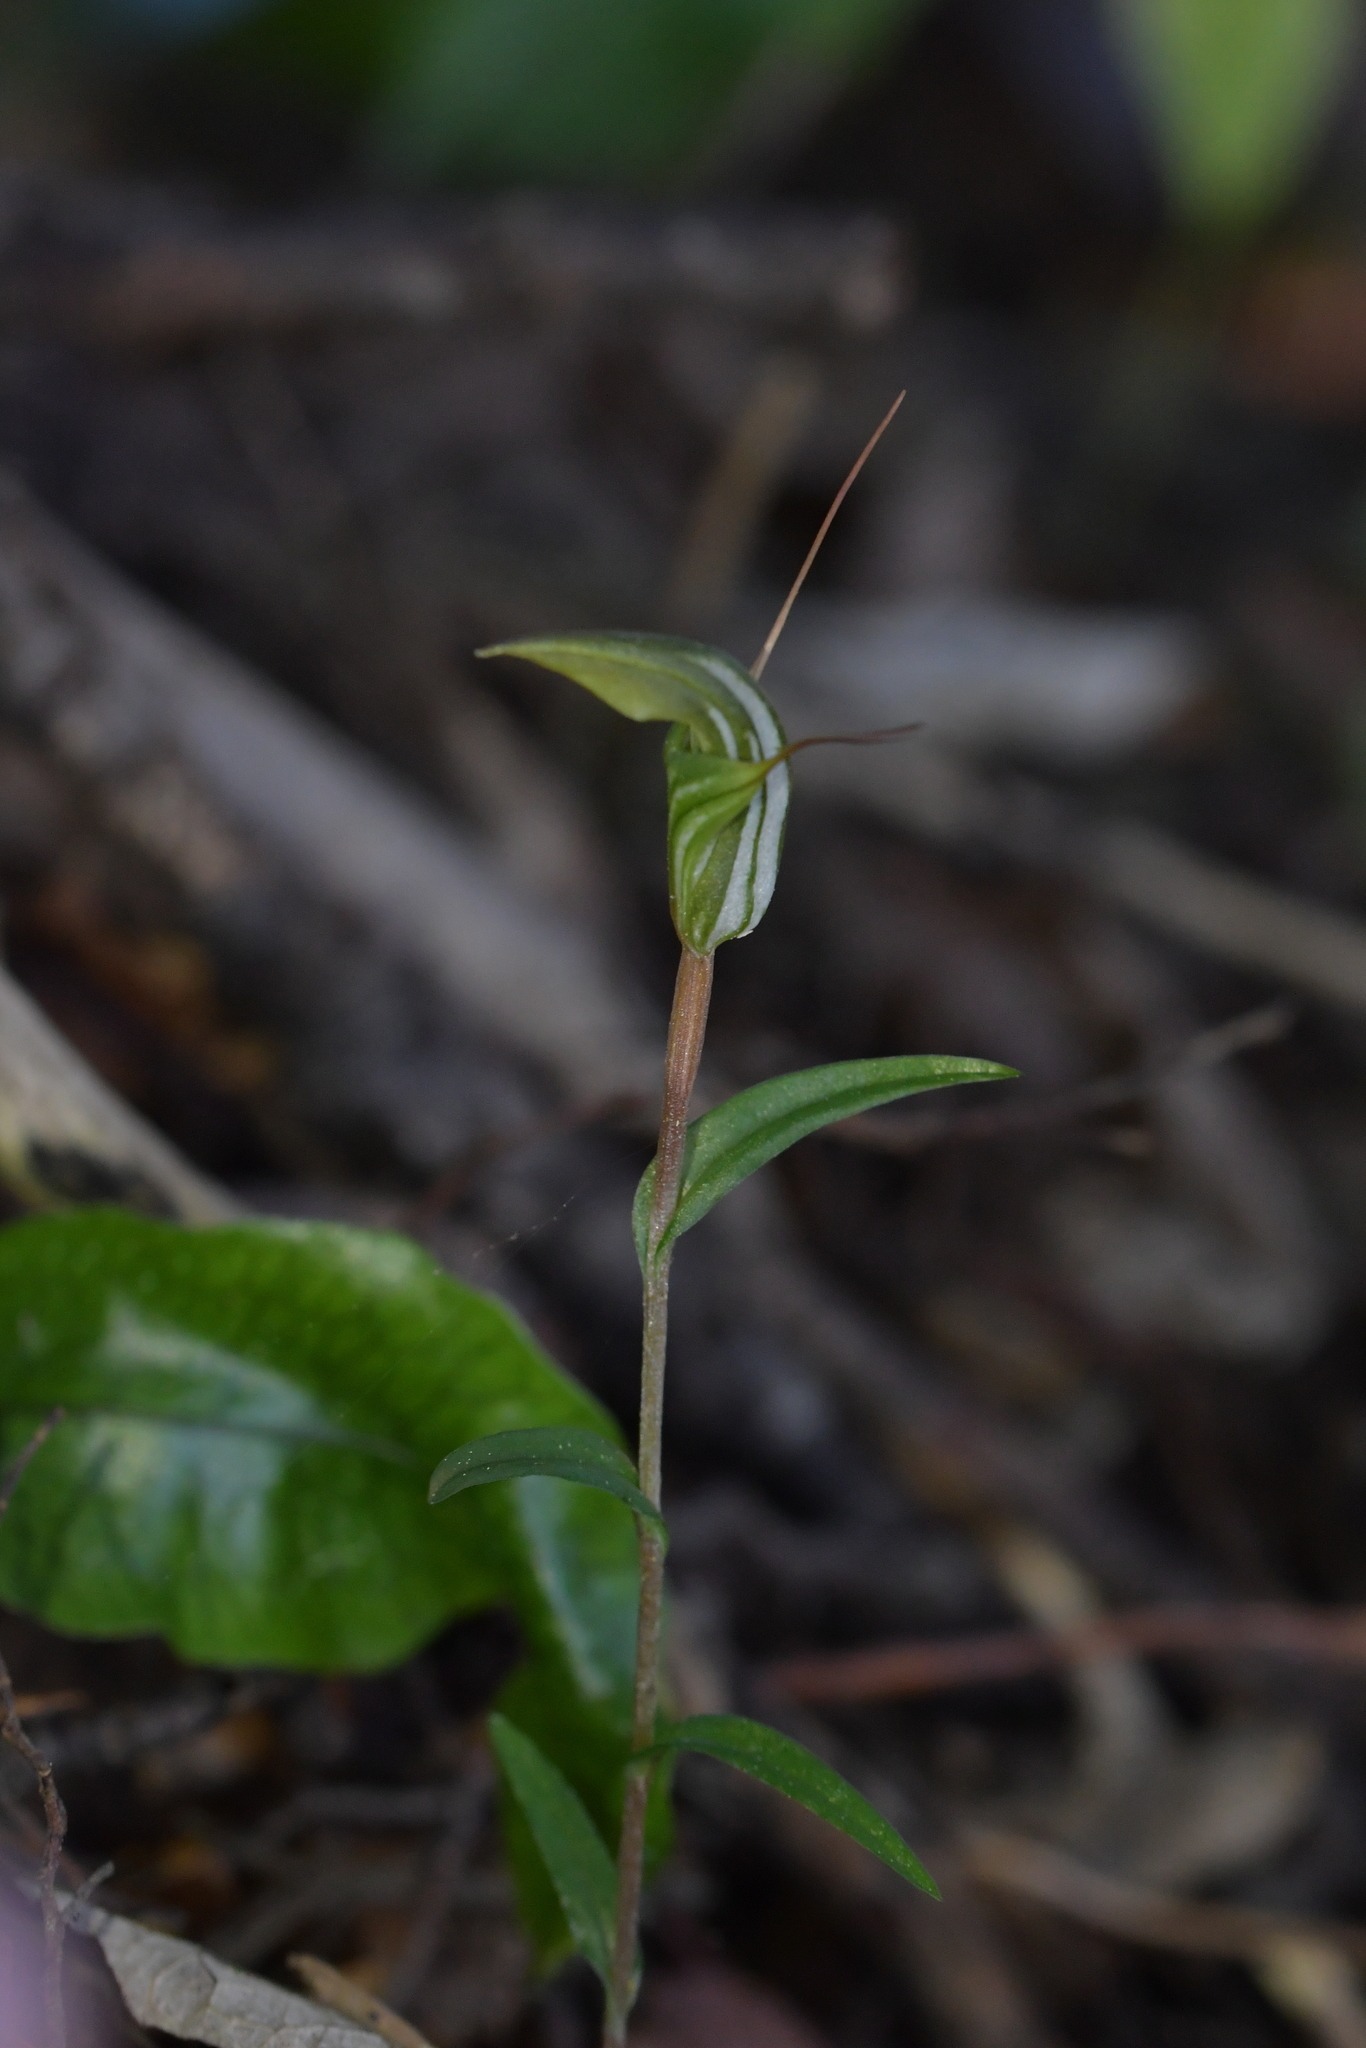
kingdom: Plantae
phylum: Tracheophyta
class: Liliopsida
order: Asparagales
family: Orchidaceae
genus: Pterostylis
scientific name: Pterostylis alobula
